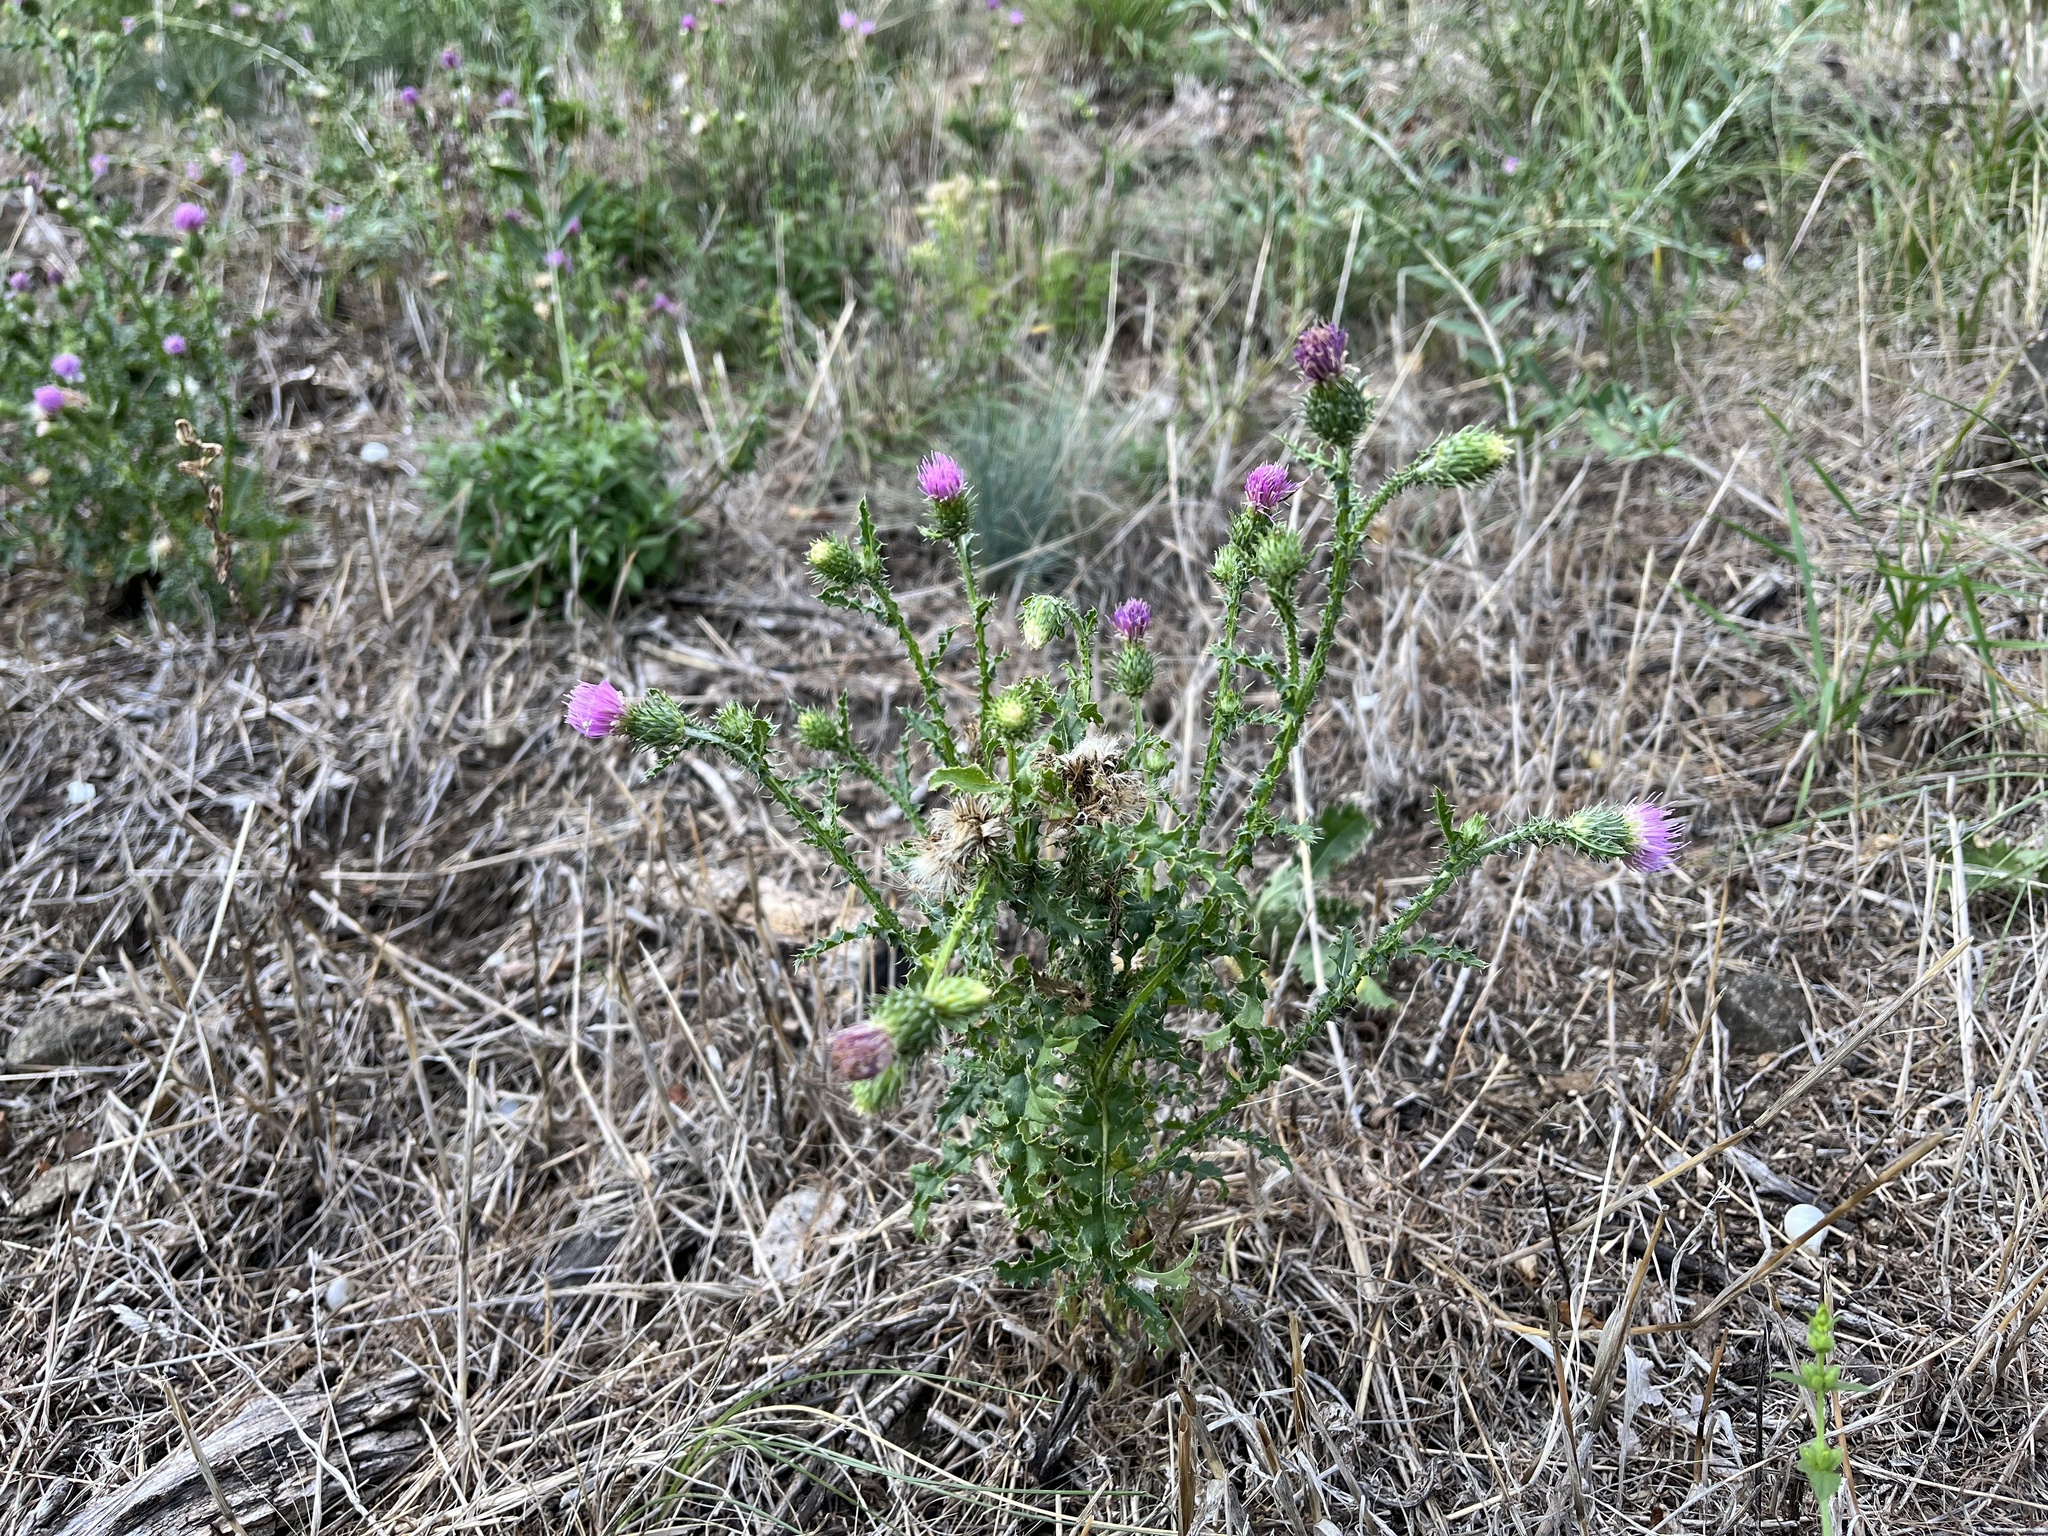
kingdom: Plantae
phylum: Tracheophyta
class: Magnoliopsida
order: Asterales
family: Asteraceae
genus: Carduus
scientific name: Carduus acanthoides
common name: Plumeless thistle
